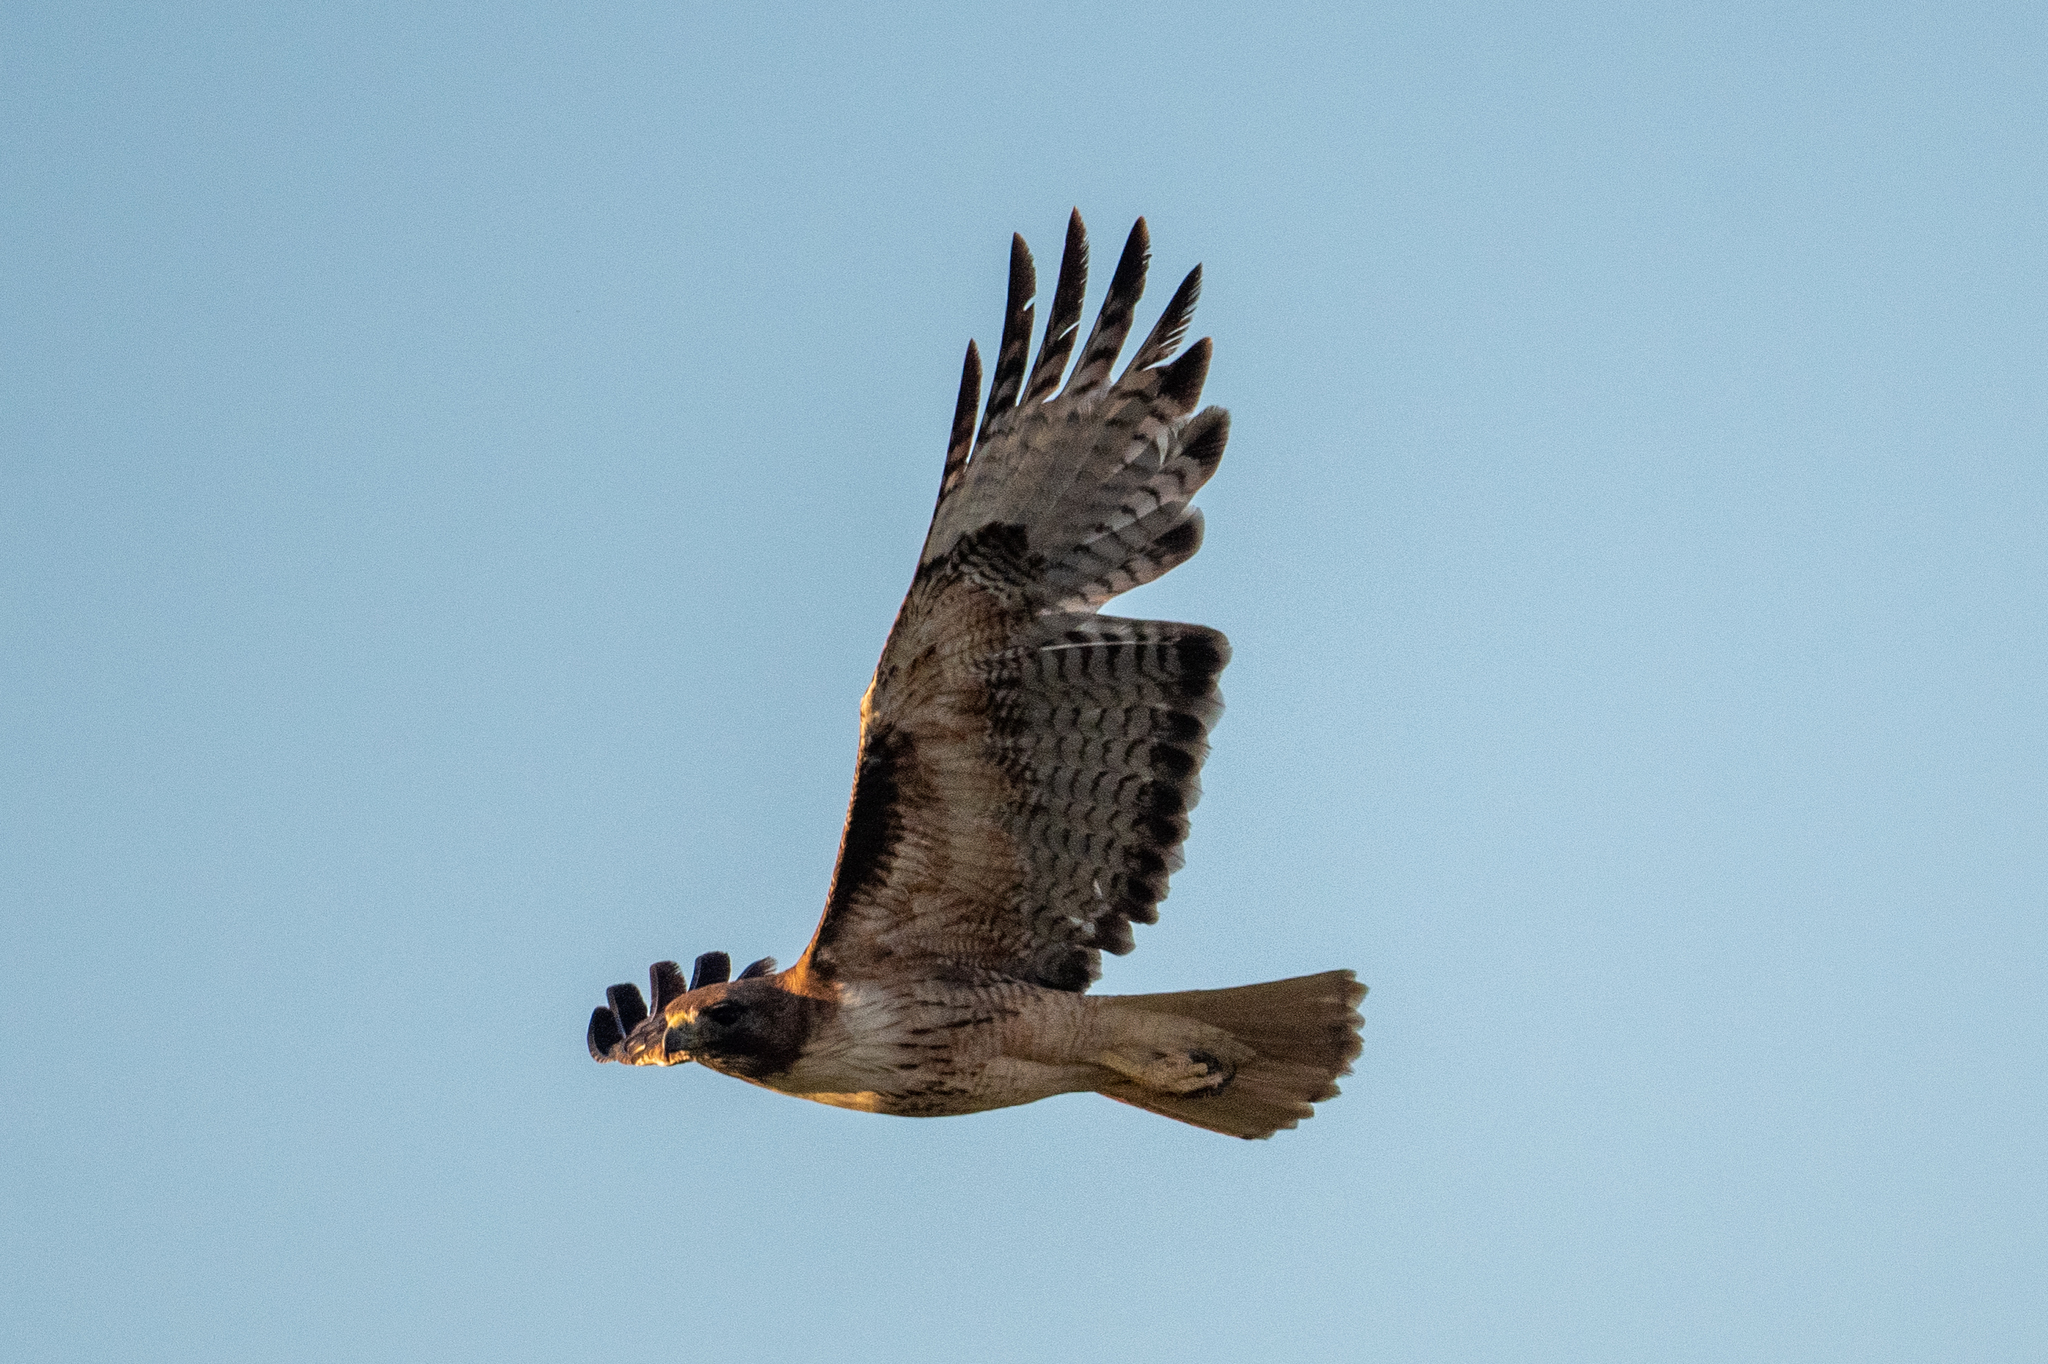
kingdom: Animalia
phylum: Chordata
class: Aves
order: Accipitriformes
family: Accipitridae
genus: Buteo
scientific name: Buteo jamaicensis
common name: Red-tailed hawk
